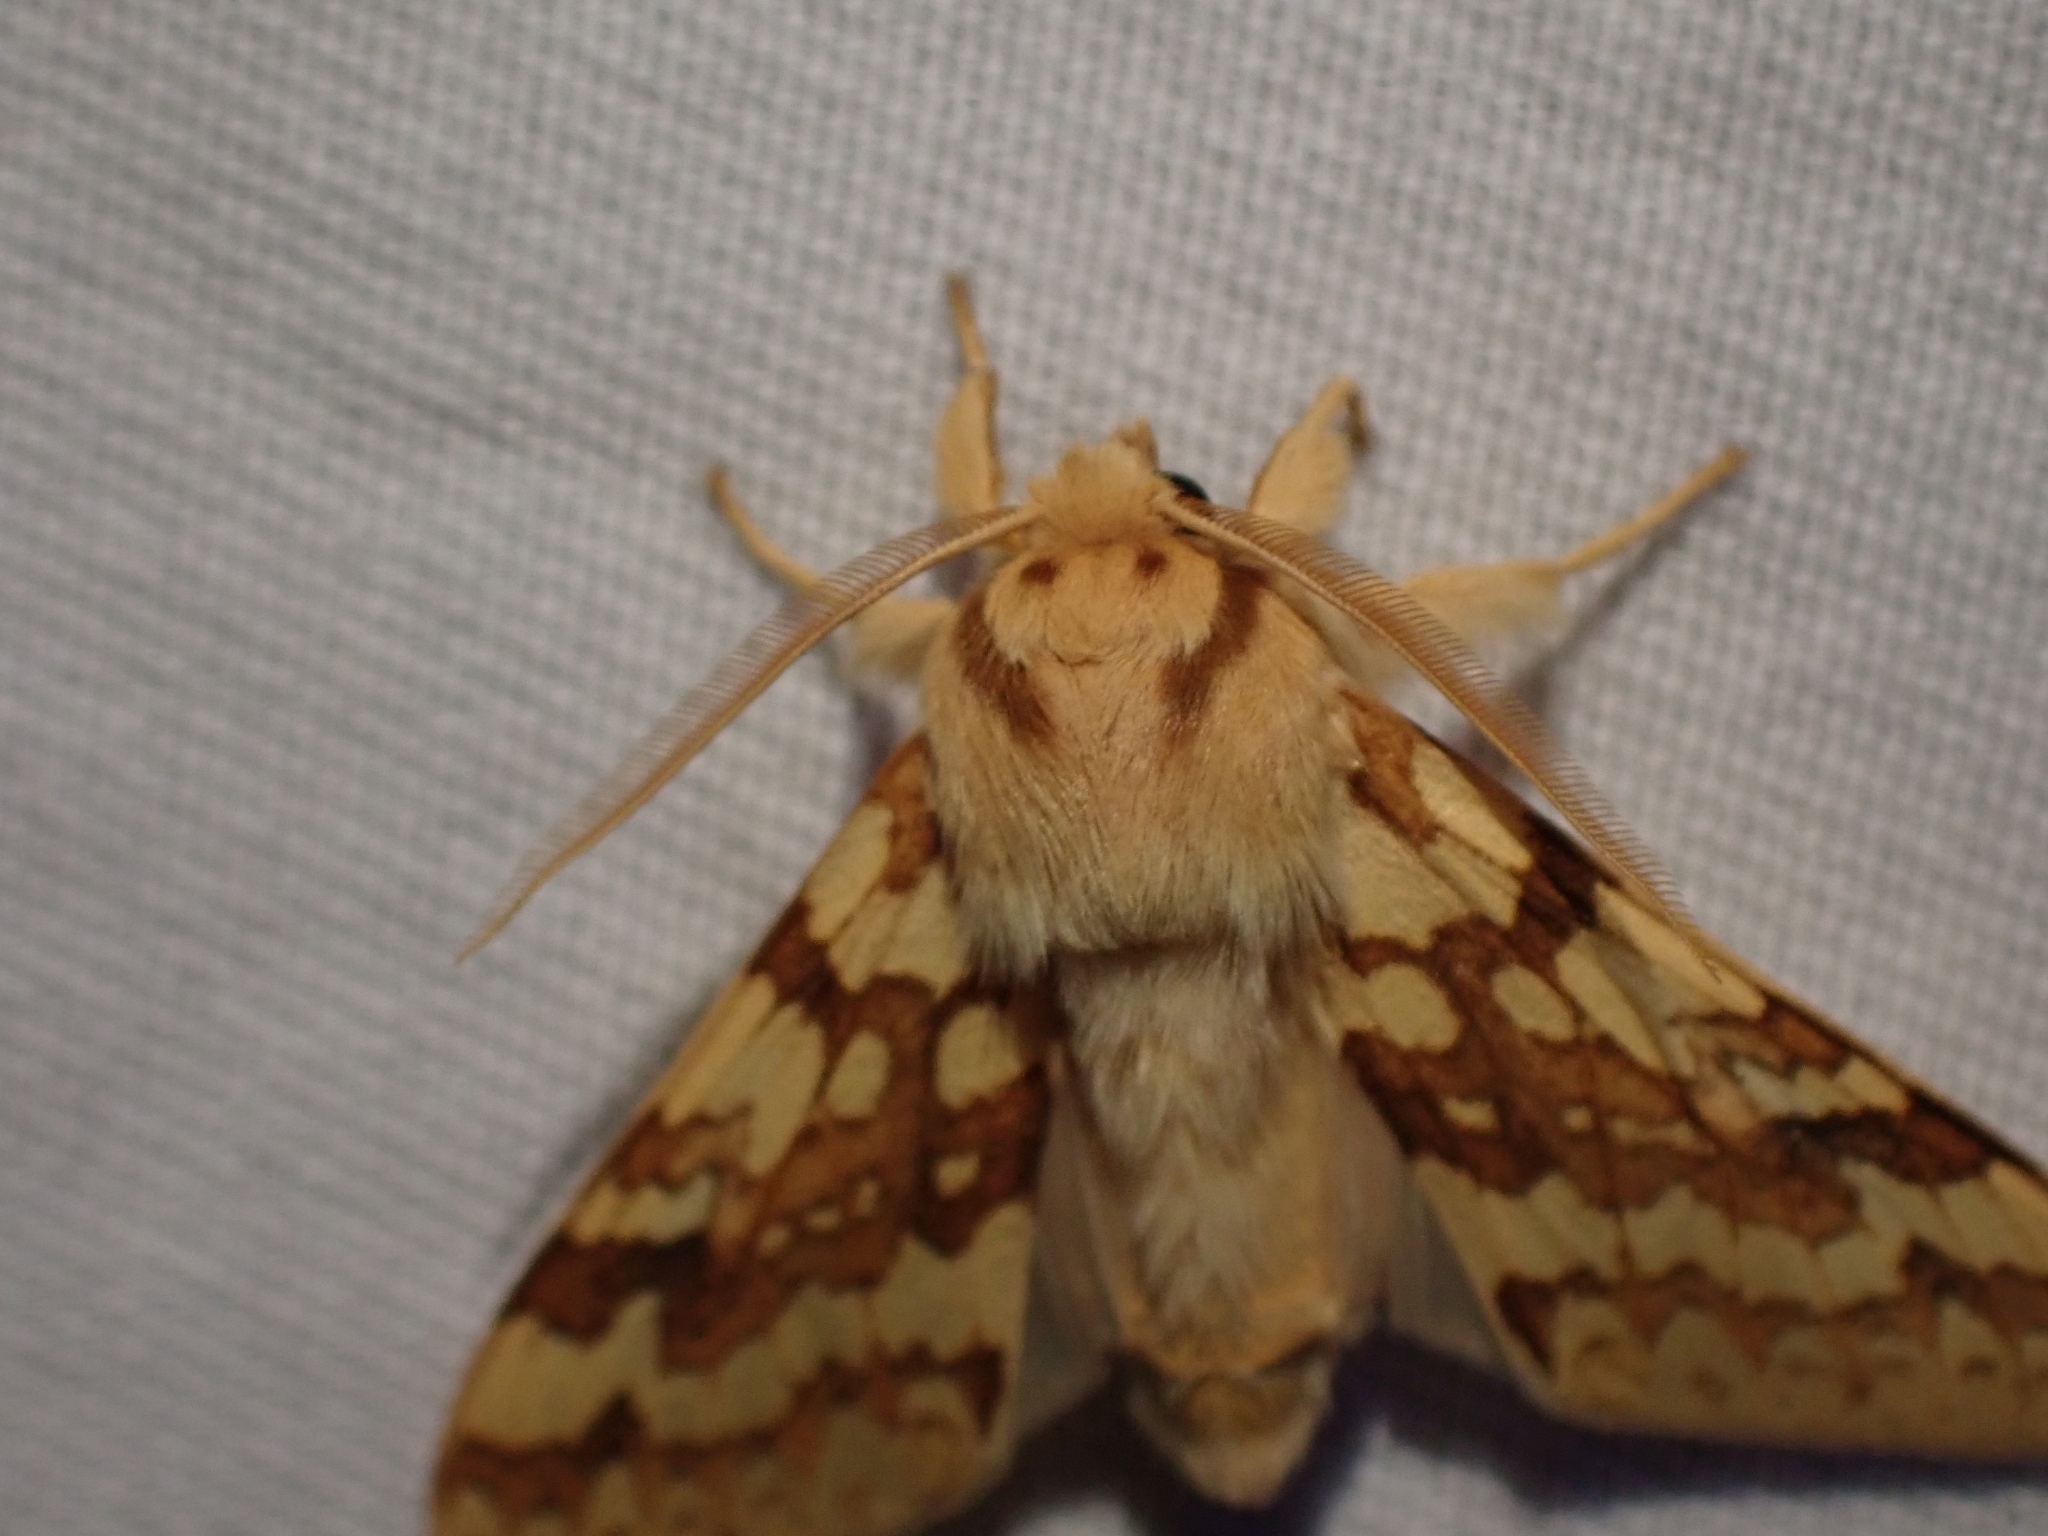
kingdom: Animalia
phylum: Arthropoda
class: Insecta
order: Lepidoptera
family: Erebidae
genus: Lophocampa
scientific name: Lophocampa maculata
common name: Spotted tussock moth
